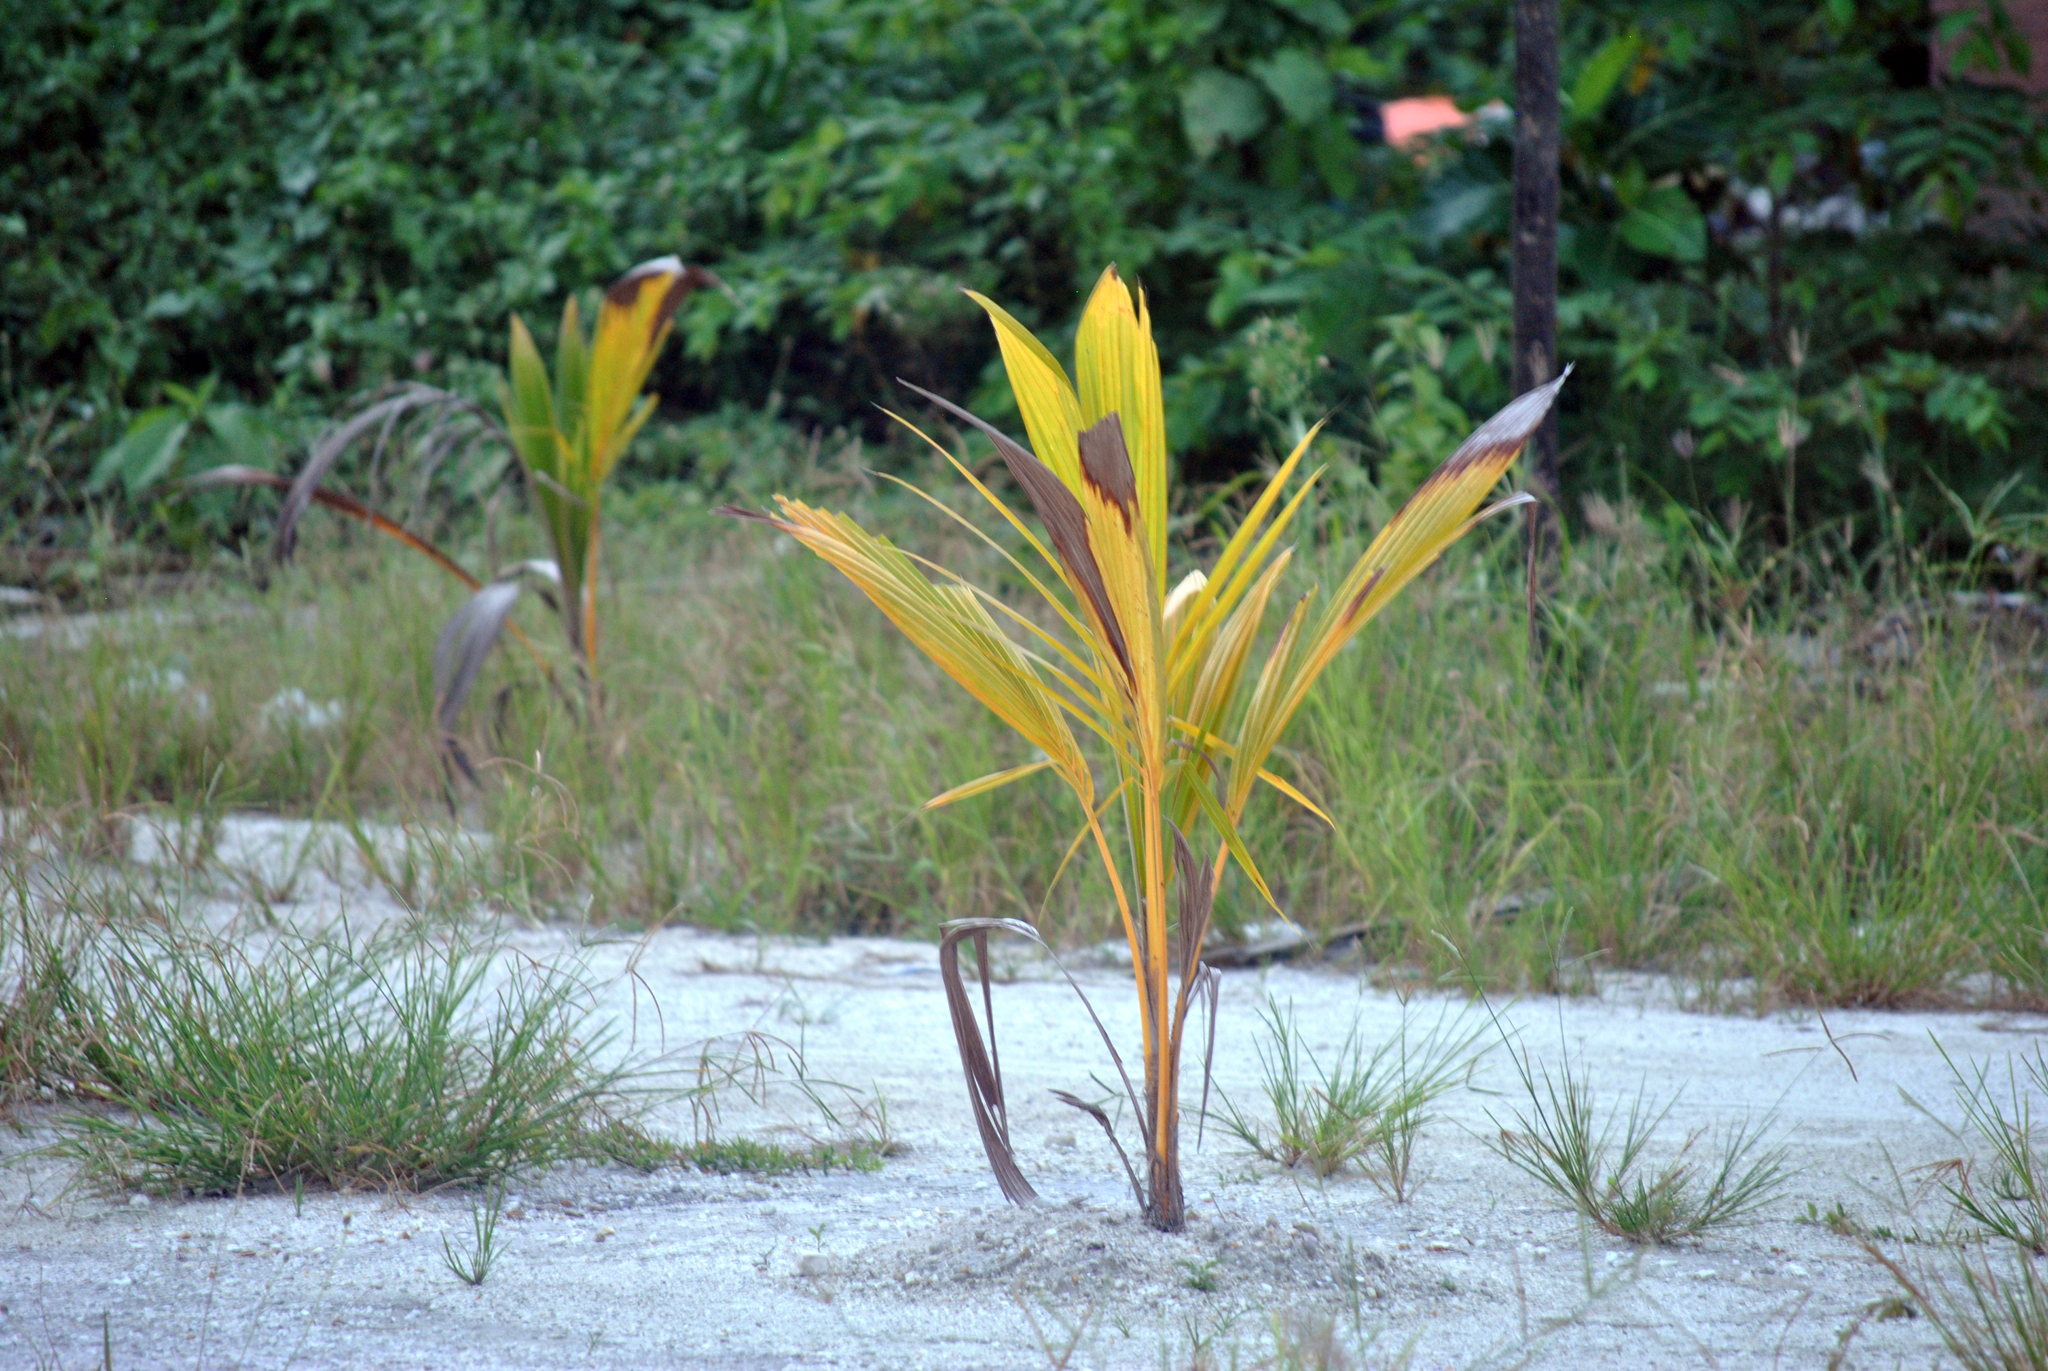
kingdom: Plantae
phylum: Tracheophyta
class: Liliopsida
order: Arecales
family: Arecaceae
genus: Cocos
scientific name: Cocos nucifera
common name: Coconut palm
